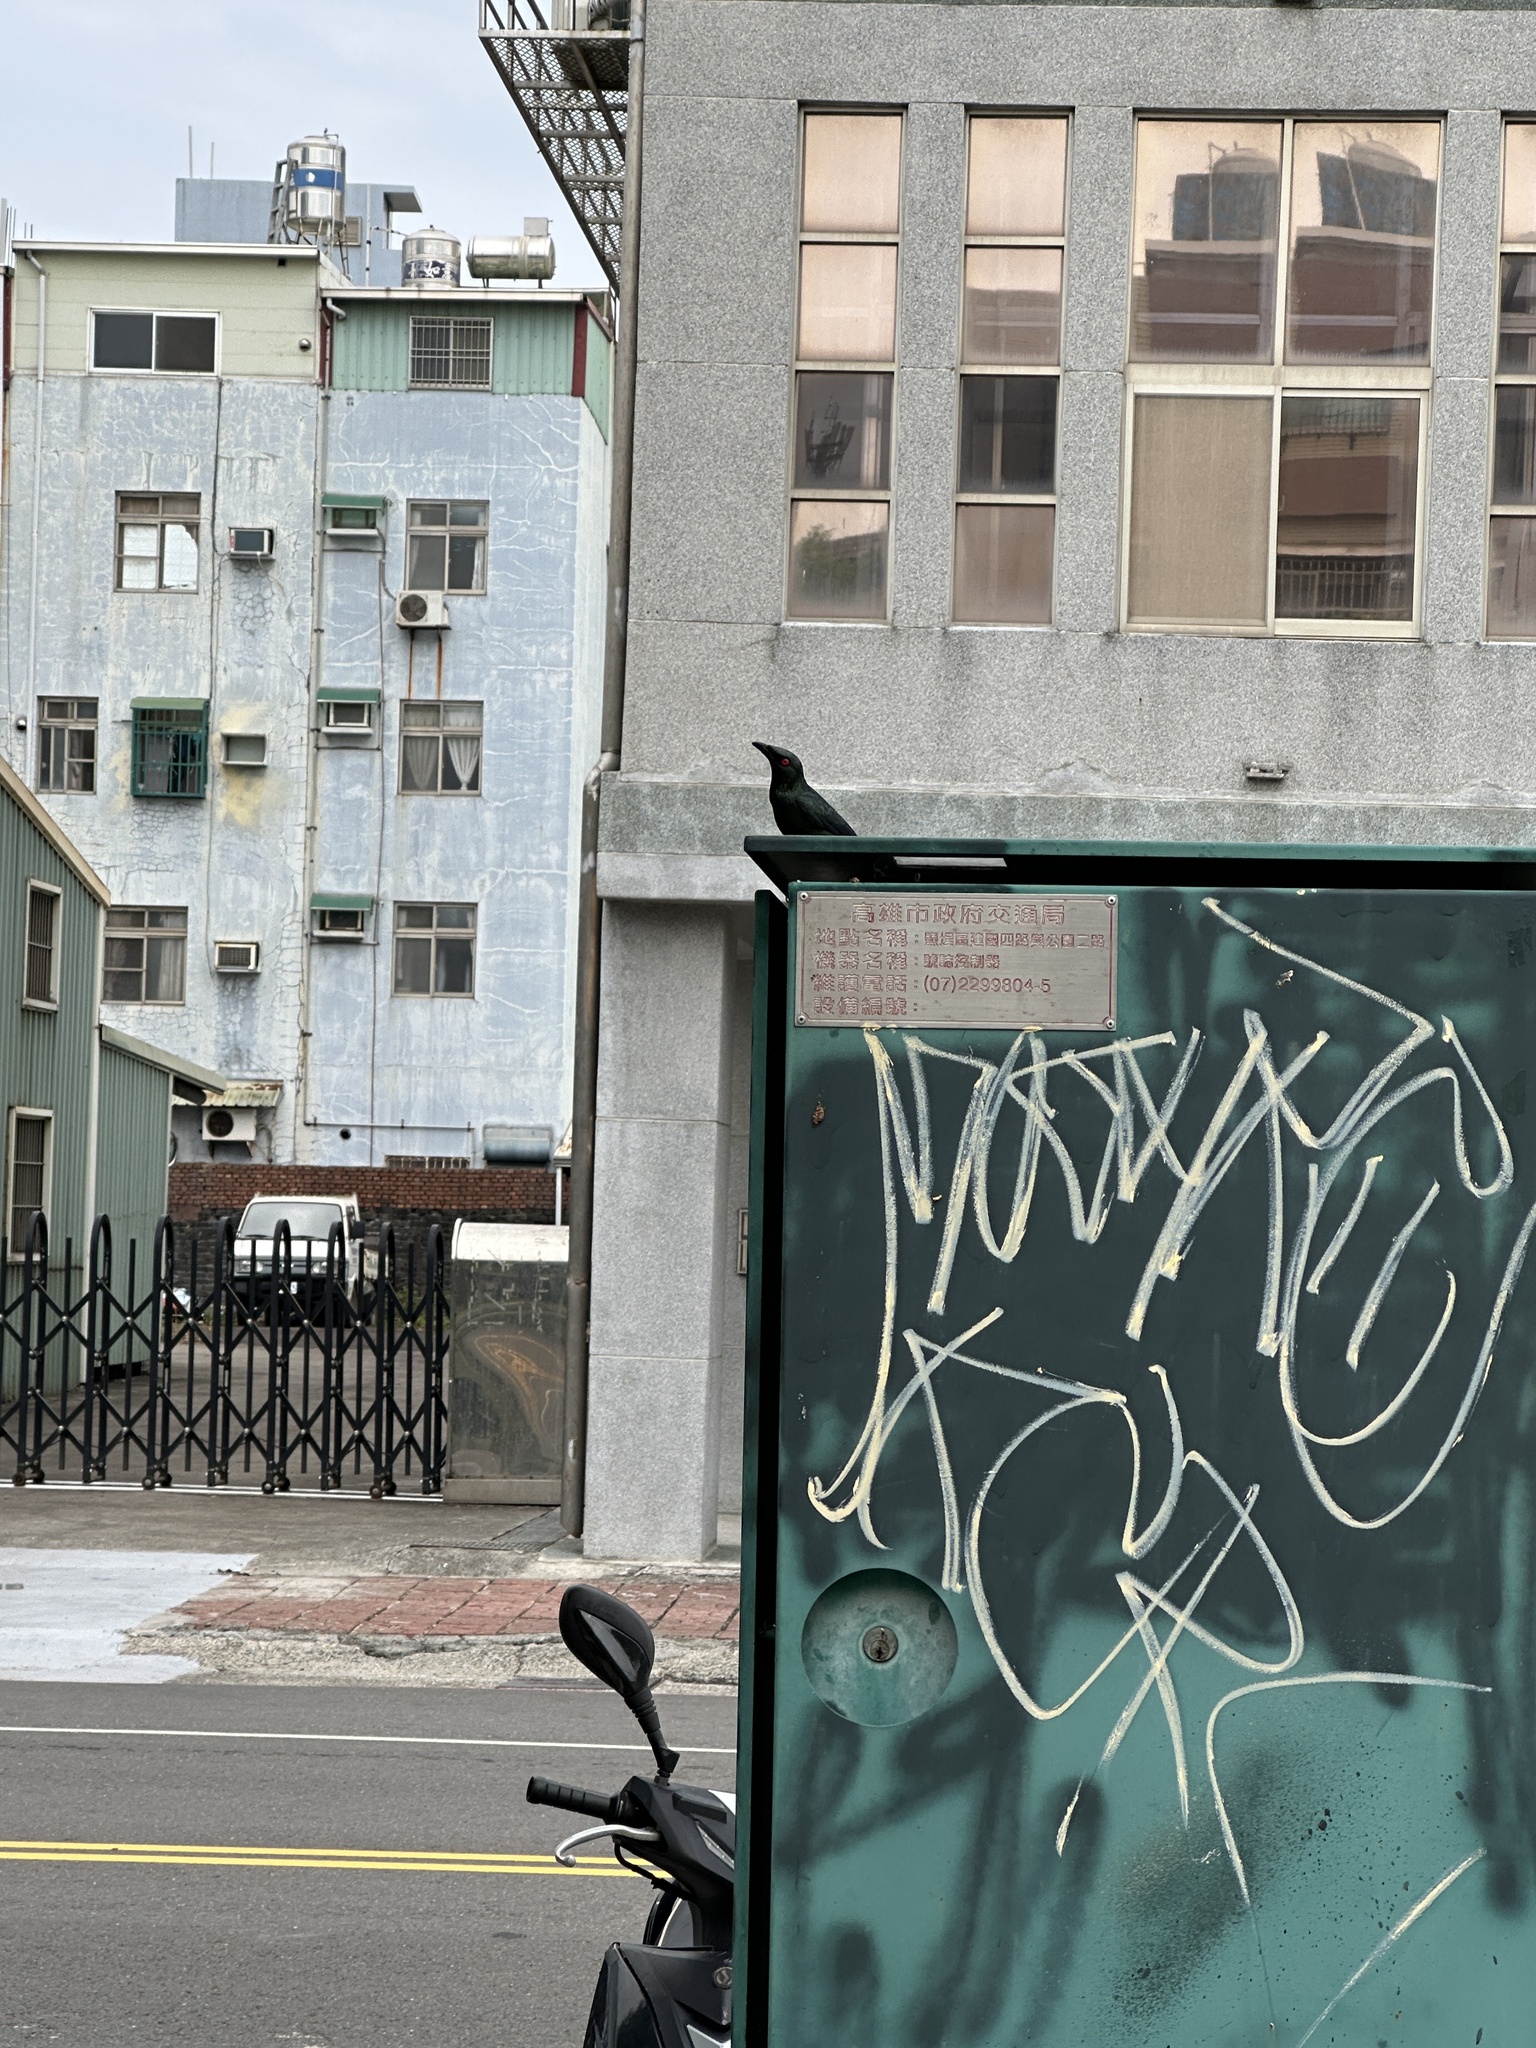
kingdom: Animalia
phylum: Chordata
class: Aves
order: Passeriformes
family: Sturnidae
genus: Aplonis
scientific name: Aplonis panayensis
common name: Asian glossy starling
